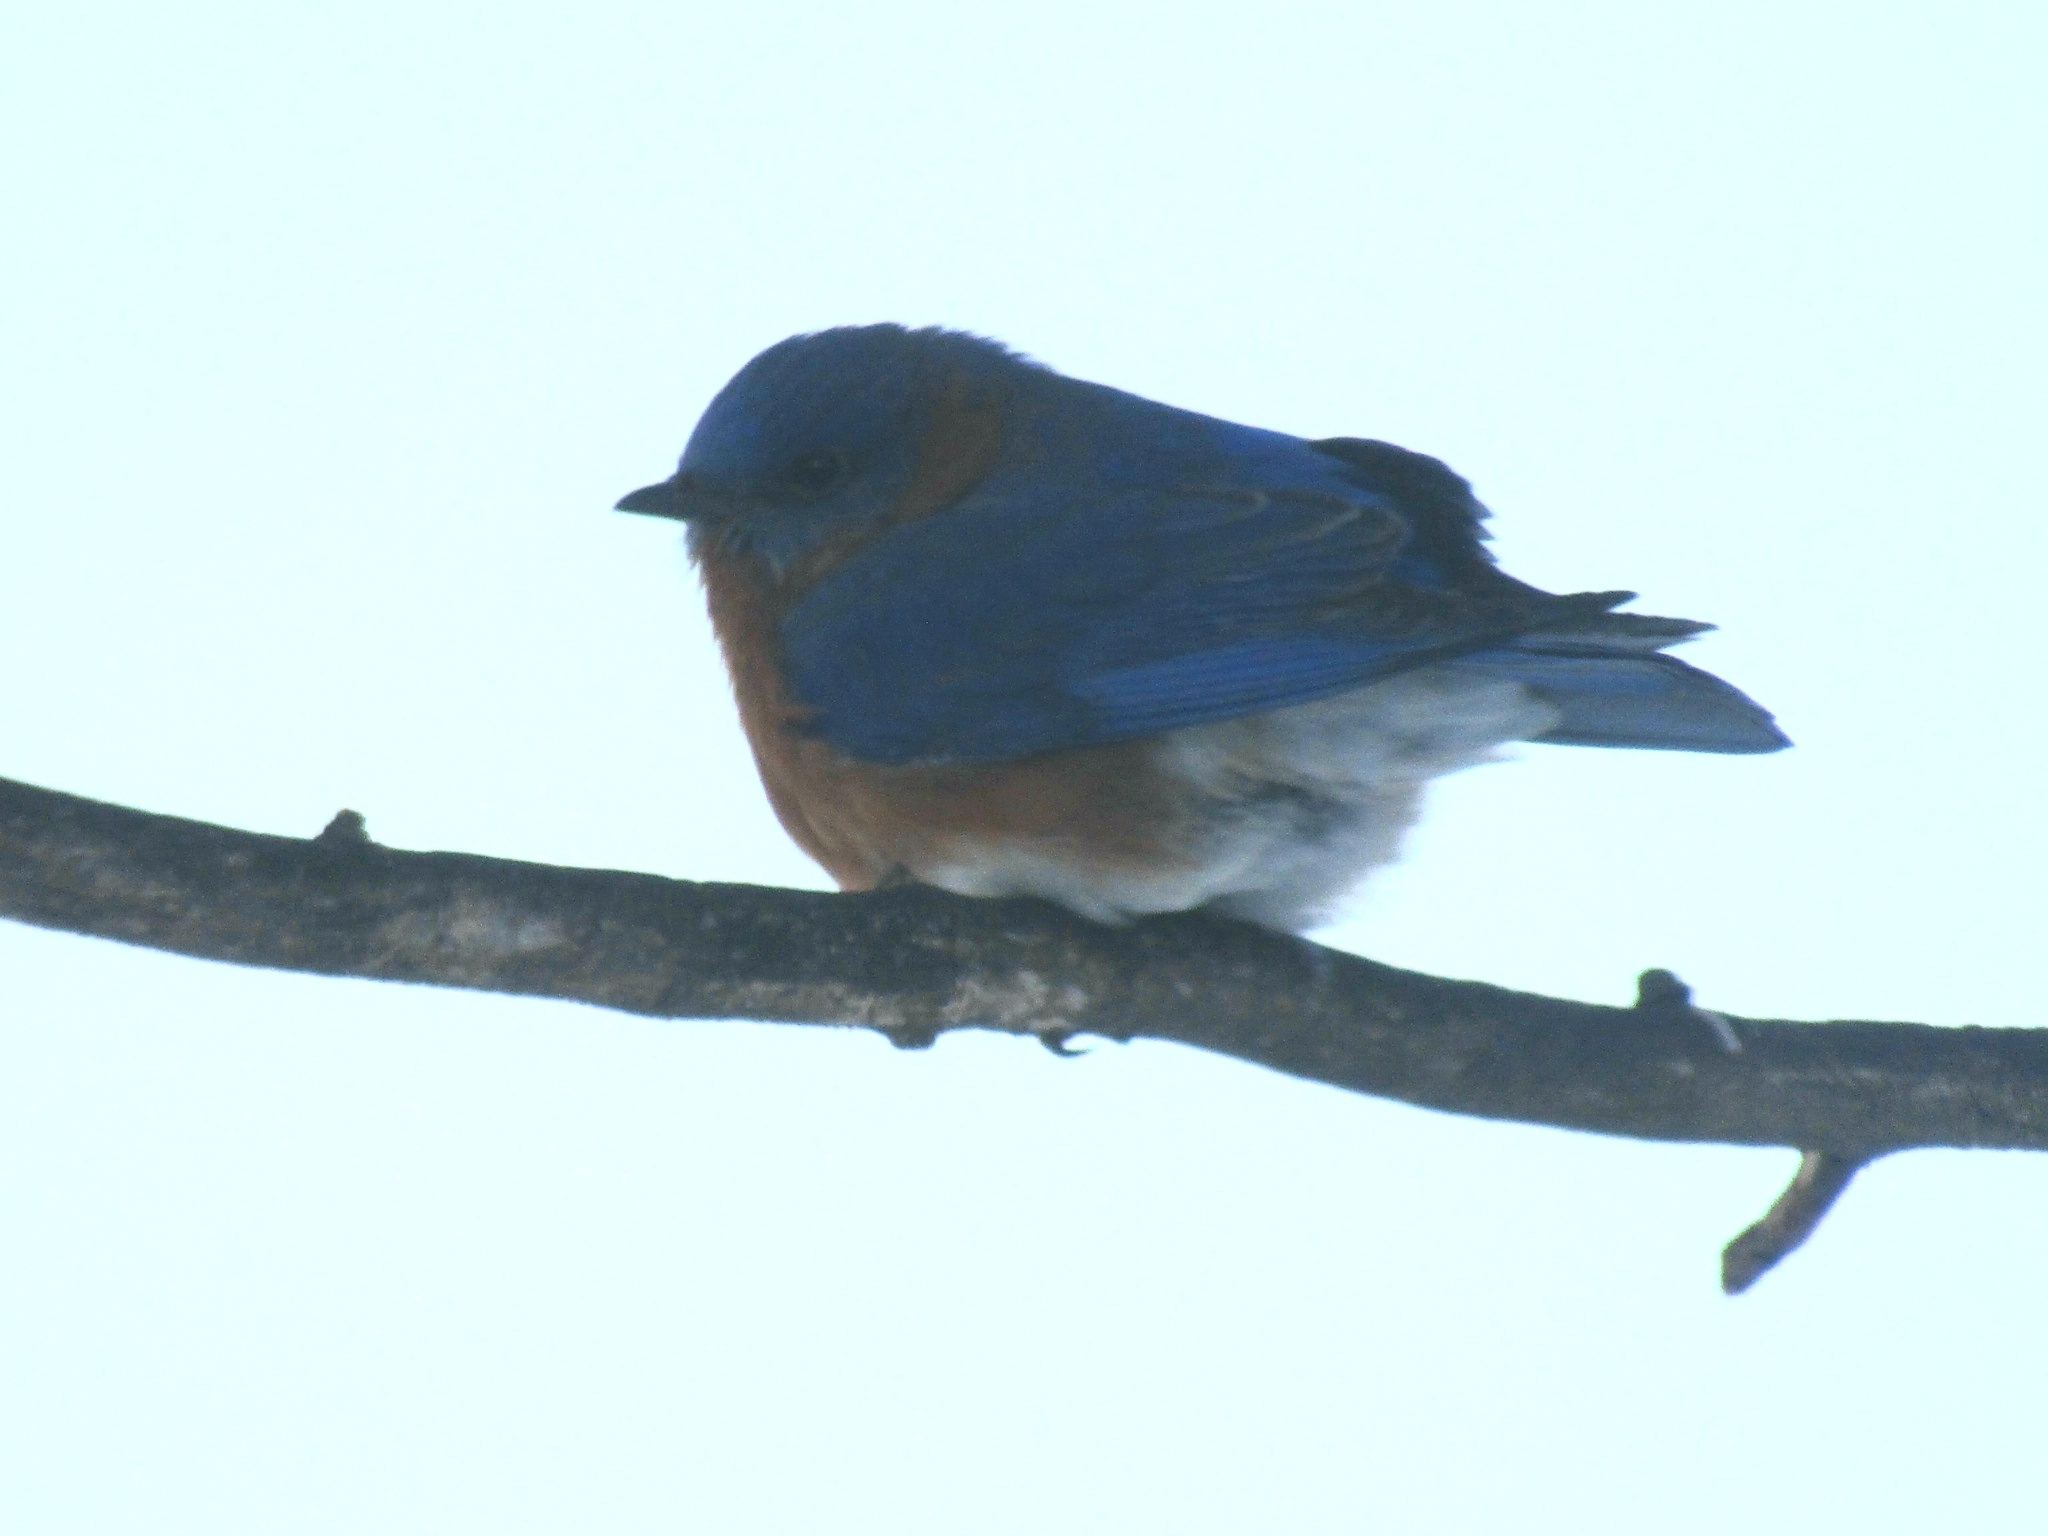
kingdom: Animalia
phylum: Chordata
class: Aves
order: Passeriformes
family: Turdidae
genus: Sialia
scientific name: Sialia sialis
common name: Eastern bluebird
